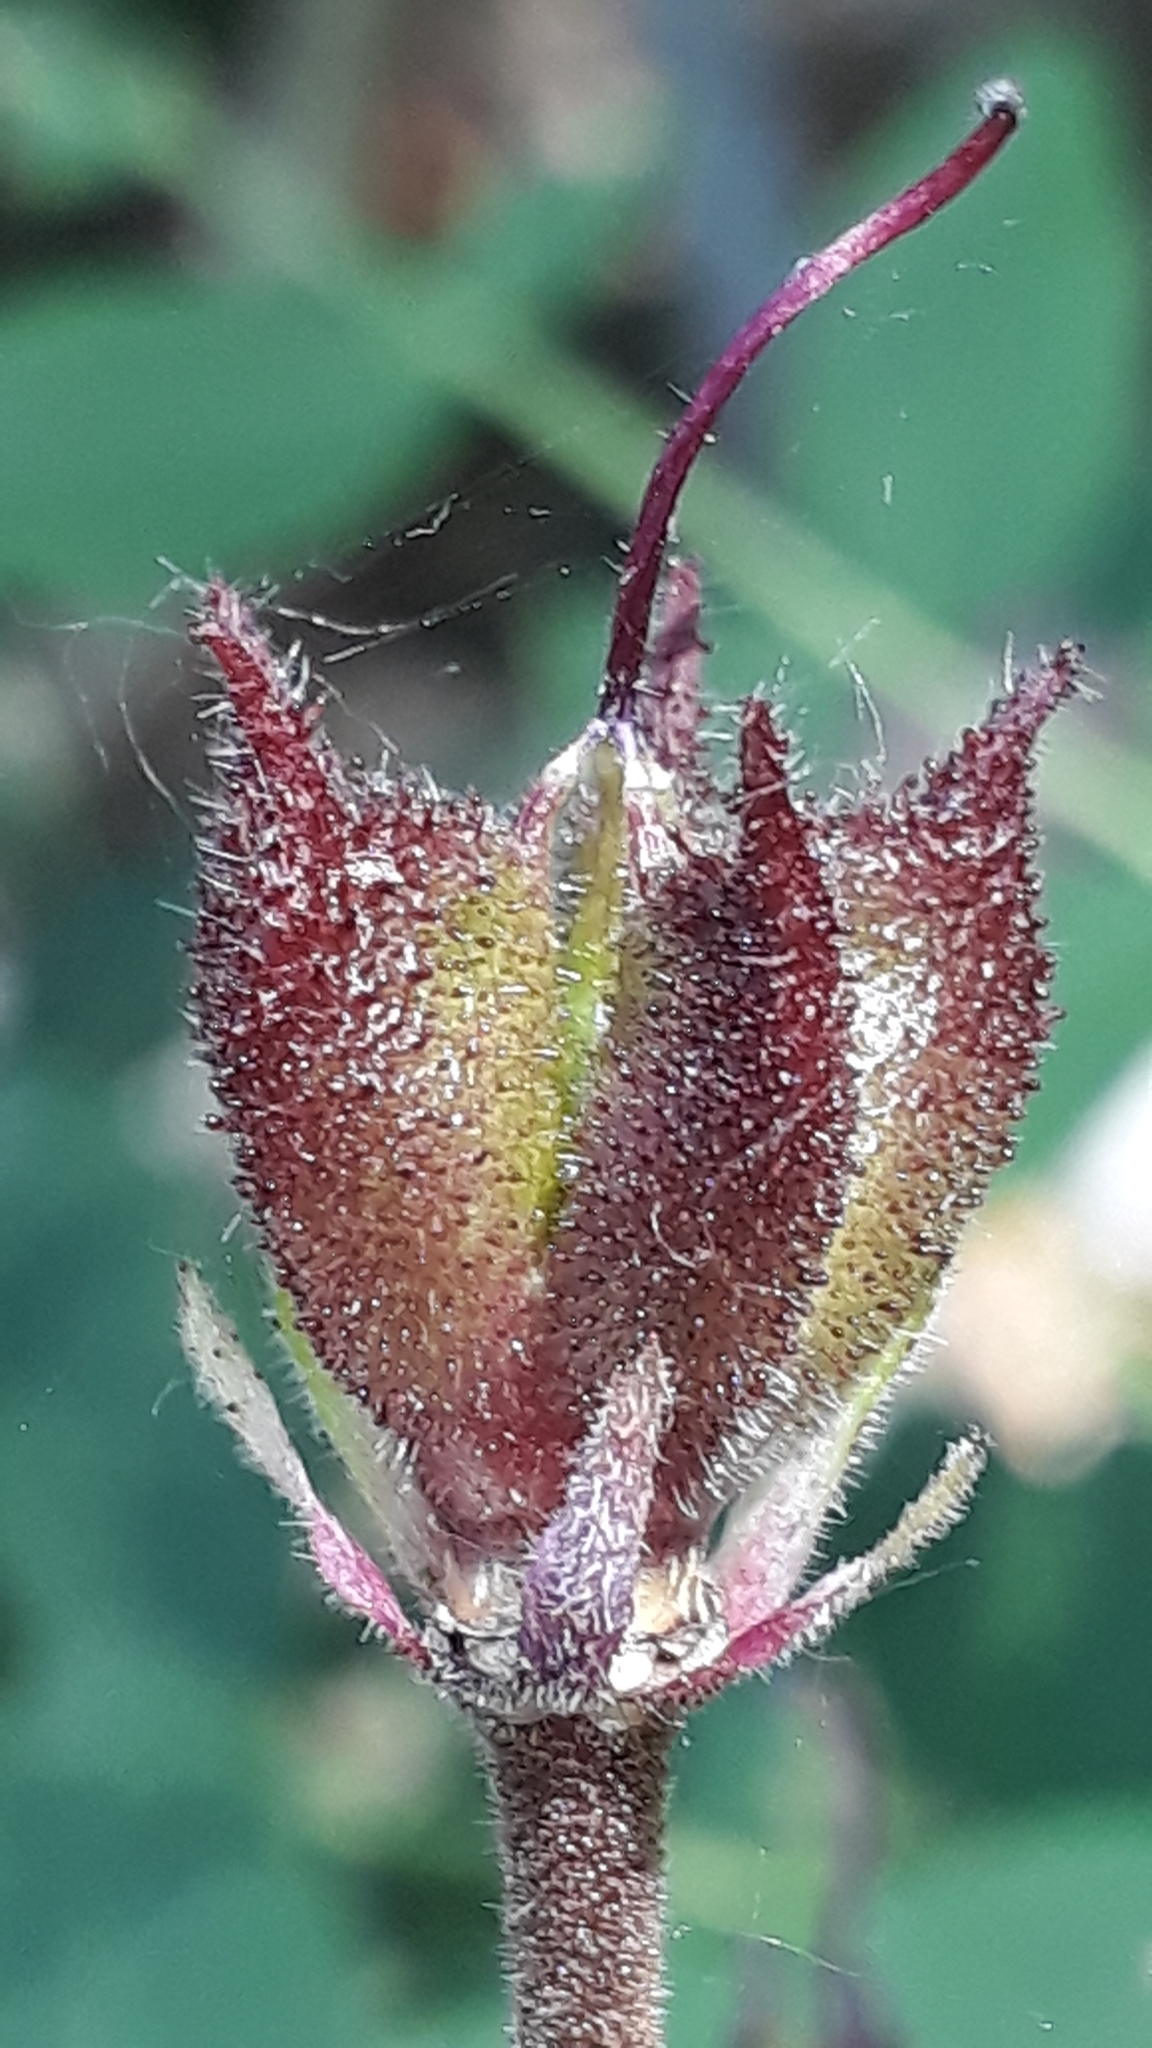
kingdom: Plantae
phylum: Tracheophyta
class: Magnoliopsida
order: Sapindales
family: Rutaceae
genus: Dictamnus
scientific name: Dictamnus albus
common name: Gasplant
